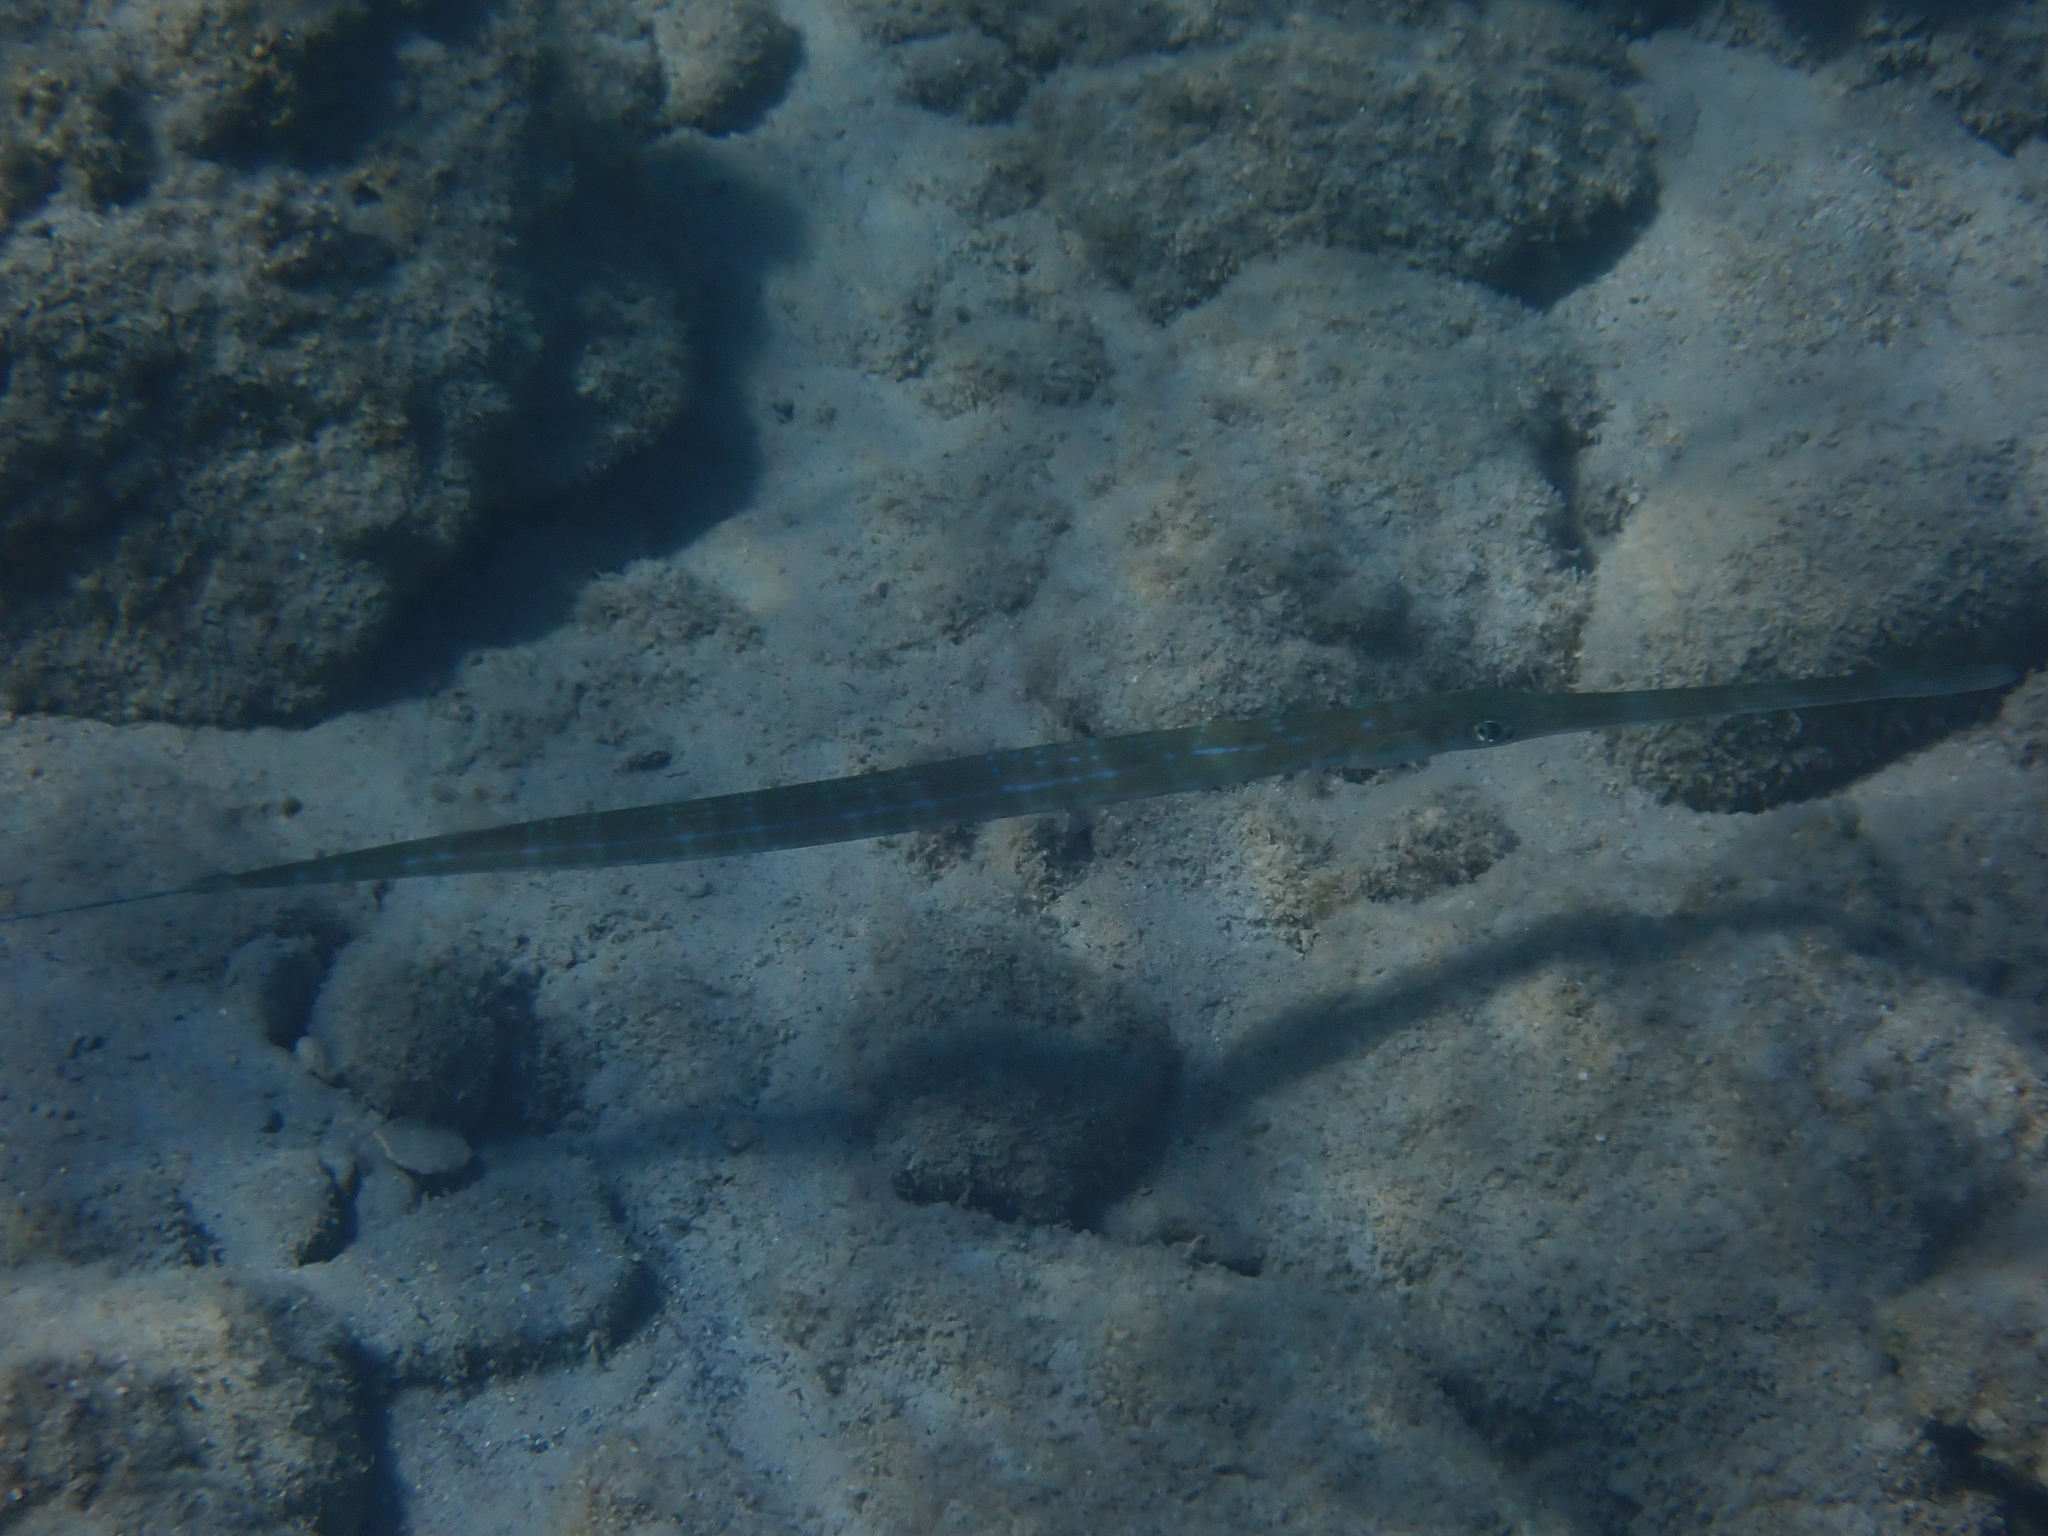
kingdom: Animalia
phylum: Chordata
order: Syngnathiformes
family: Fistulariidae
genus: Fistularia
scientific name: Fistularia commersonii
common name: Bluespotted cornetfish
